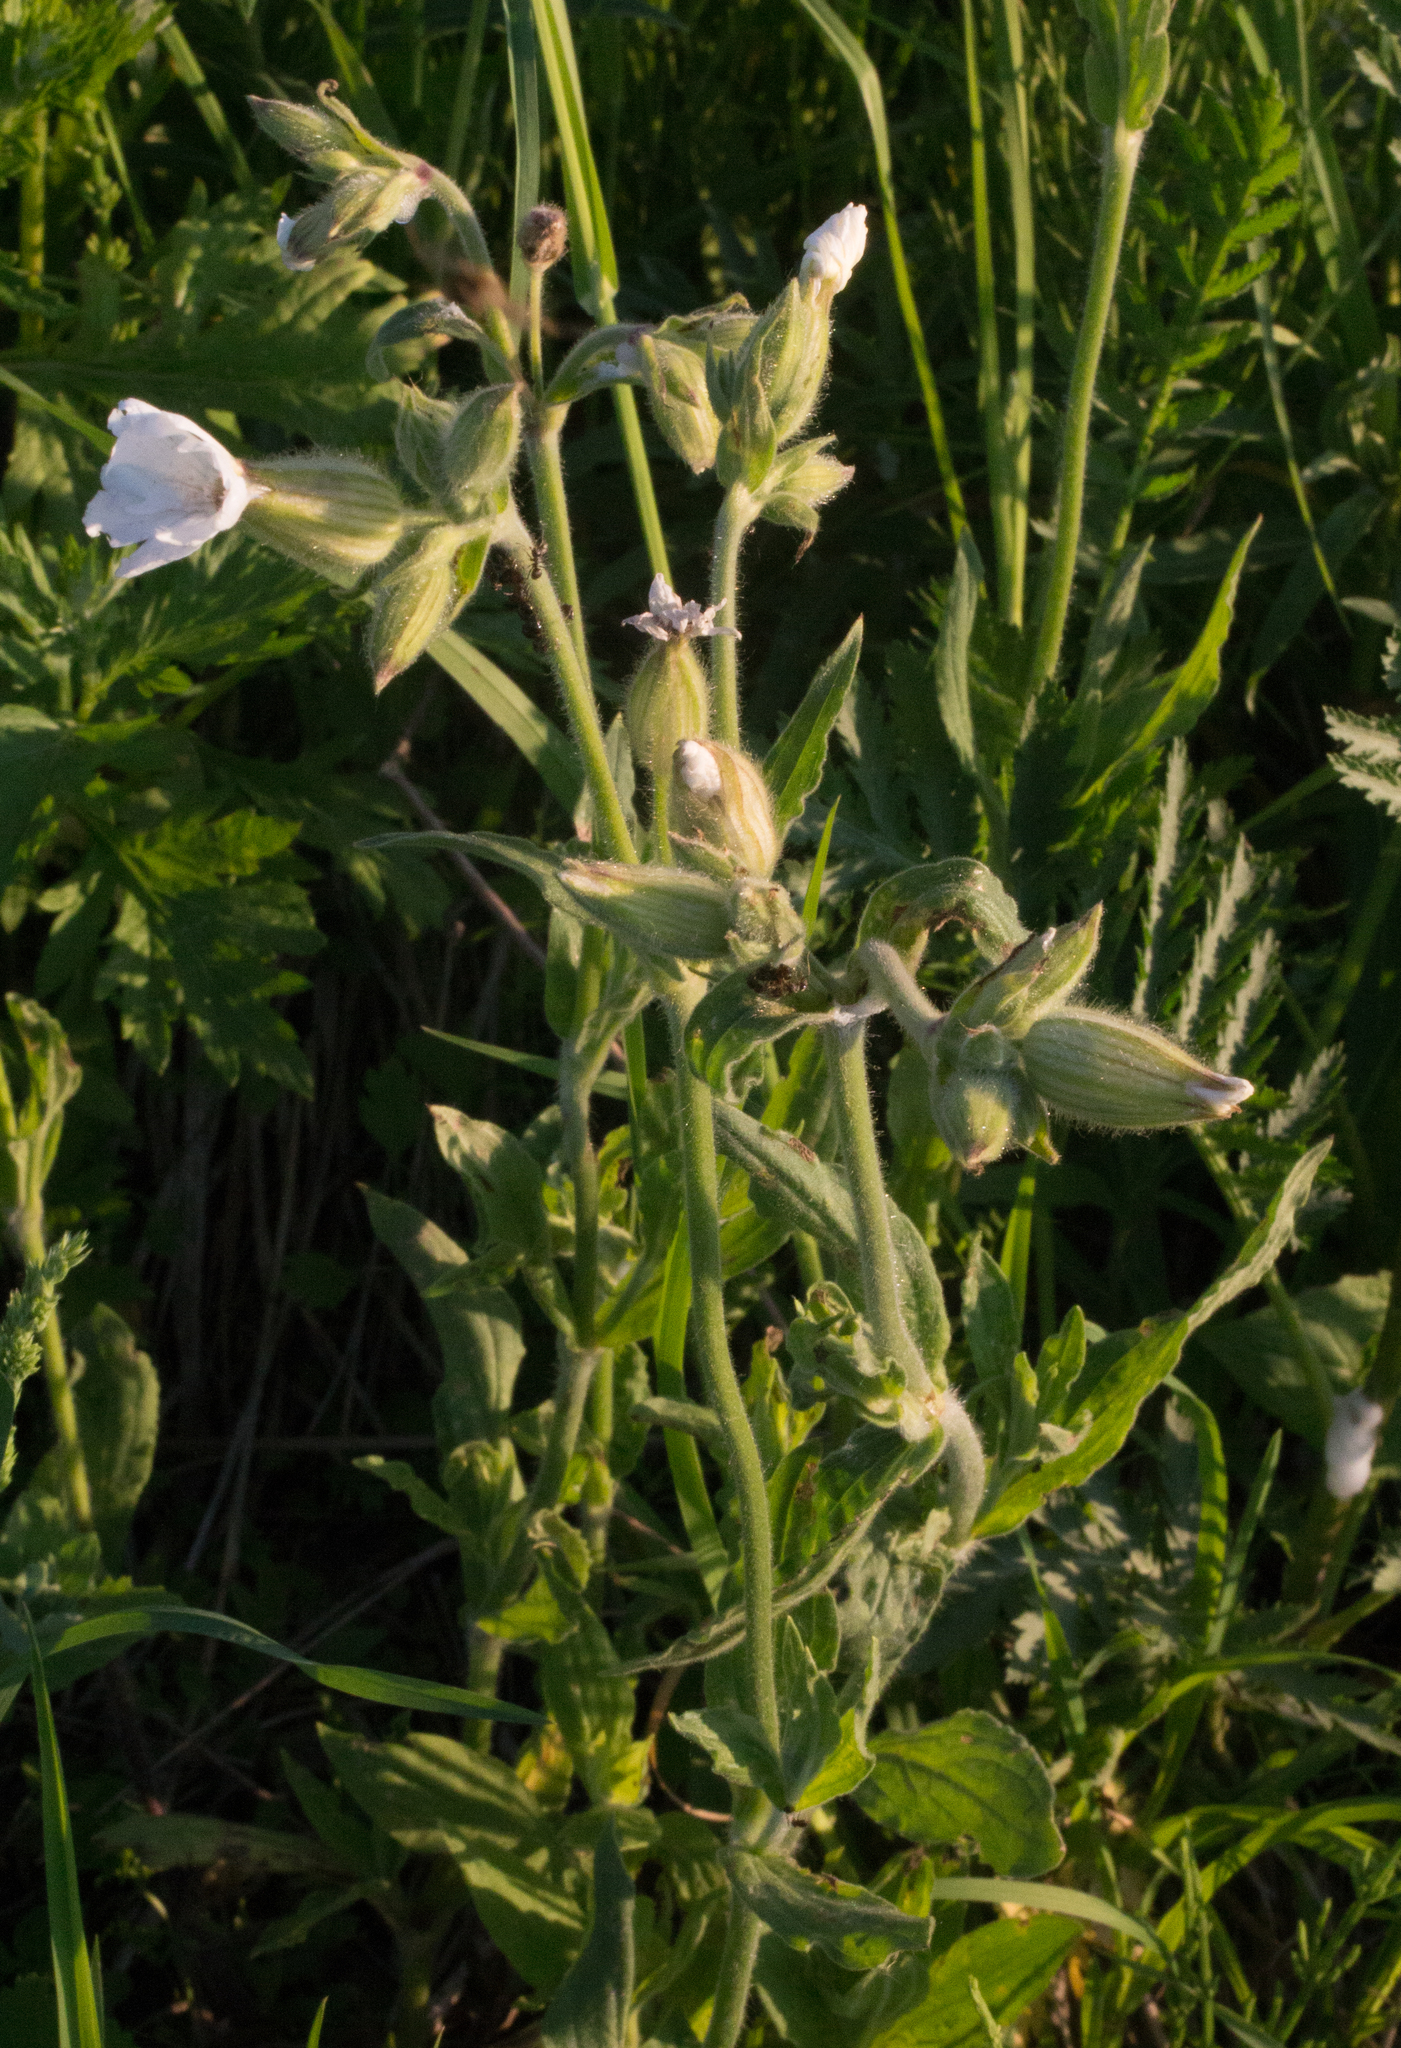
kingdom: Plantae
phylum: Tracheophyta
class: Magnoliopsida
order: Caryophyllales
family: Caryophyllaceae
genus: Silene
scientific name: Silene latifolia
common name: White campion
